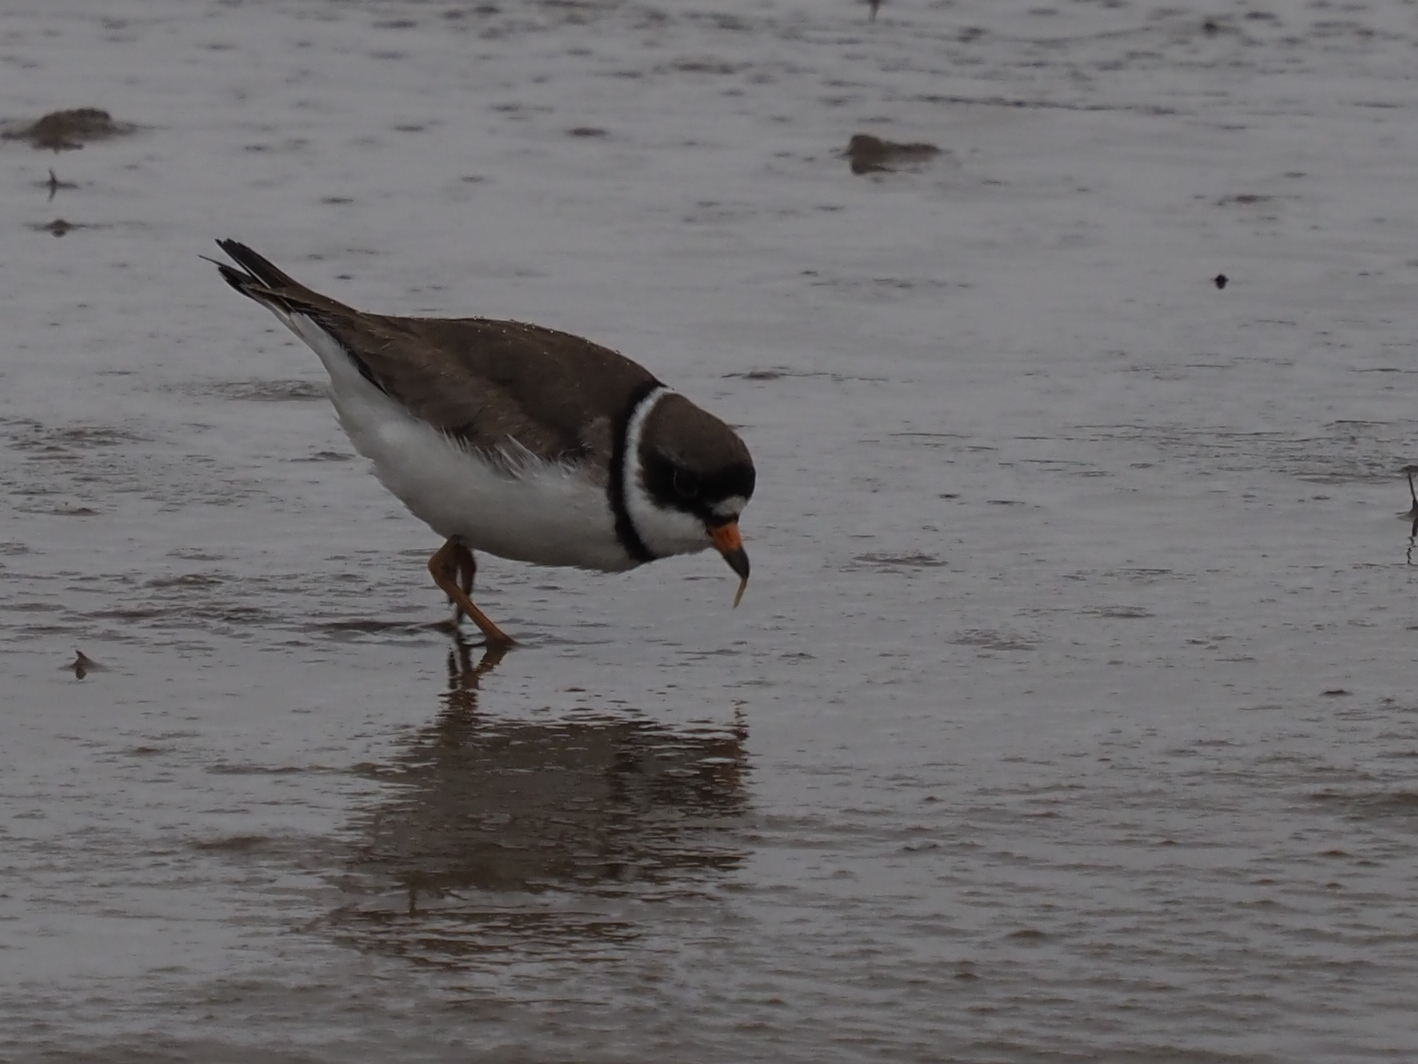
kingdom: Animalia
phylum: Chordata
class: Aves
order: Charadriiformes
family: Charadriidae
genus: Charadrius
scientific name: Charadrius semipalmatus
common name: Semipalmated plover
